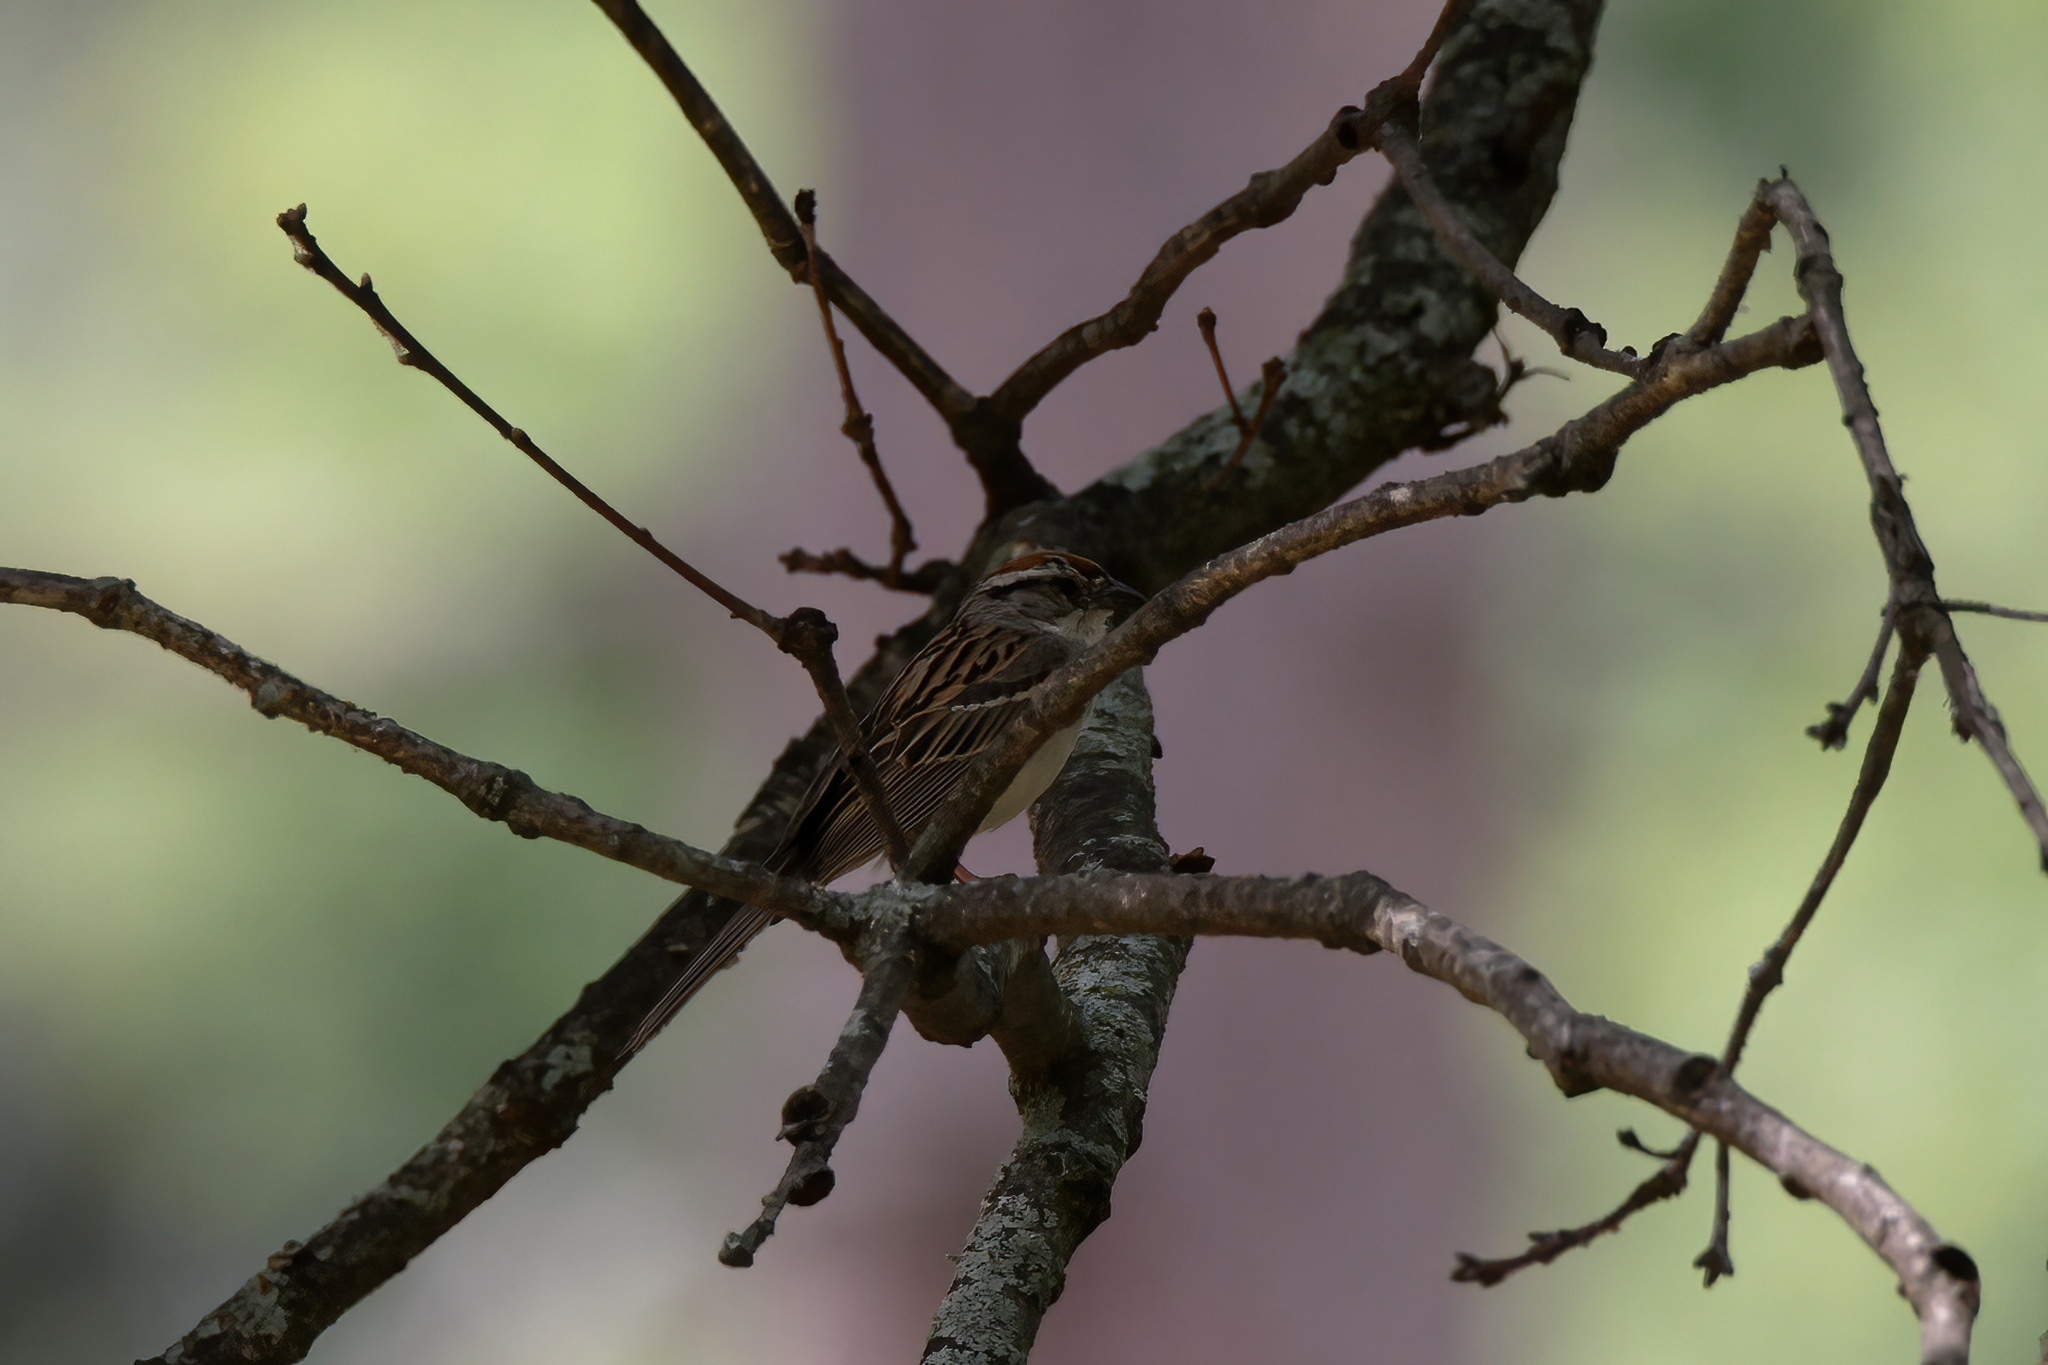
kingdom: Animalia
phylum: Chordata
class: Aves
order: Passeriformes
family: Passerellidae
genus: Spizella
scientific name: Spizella passerina
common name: Chipping sparrow
